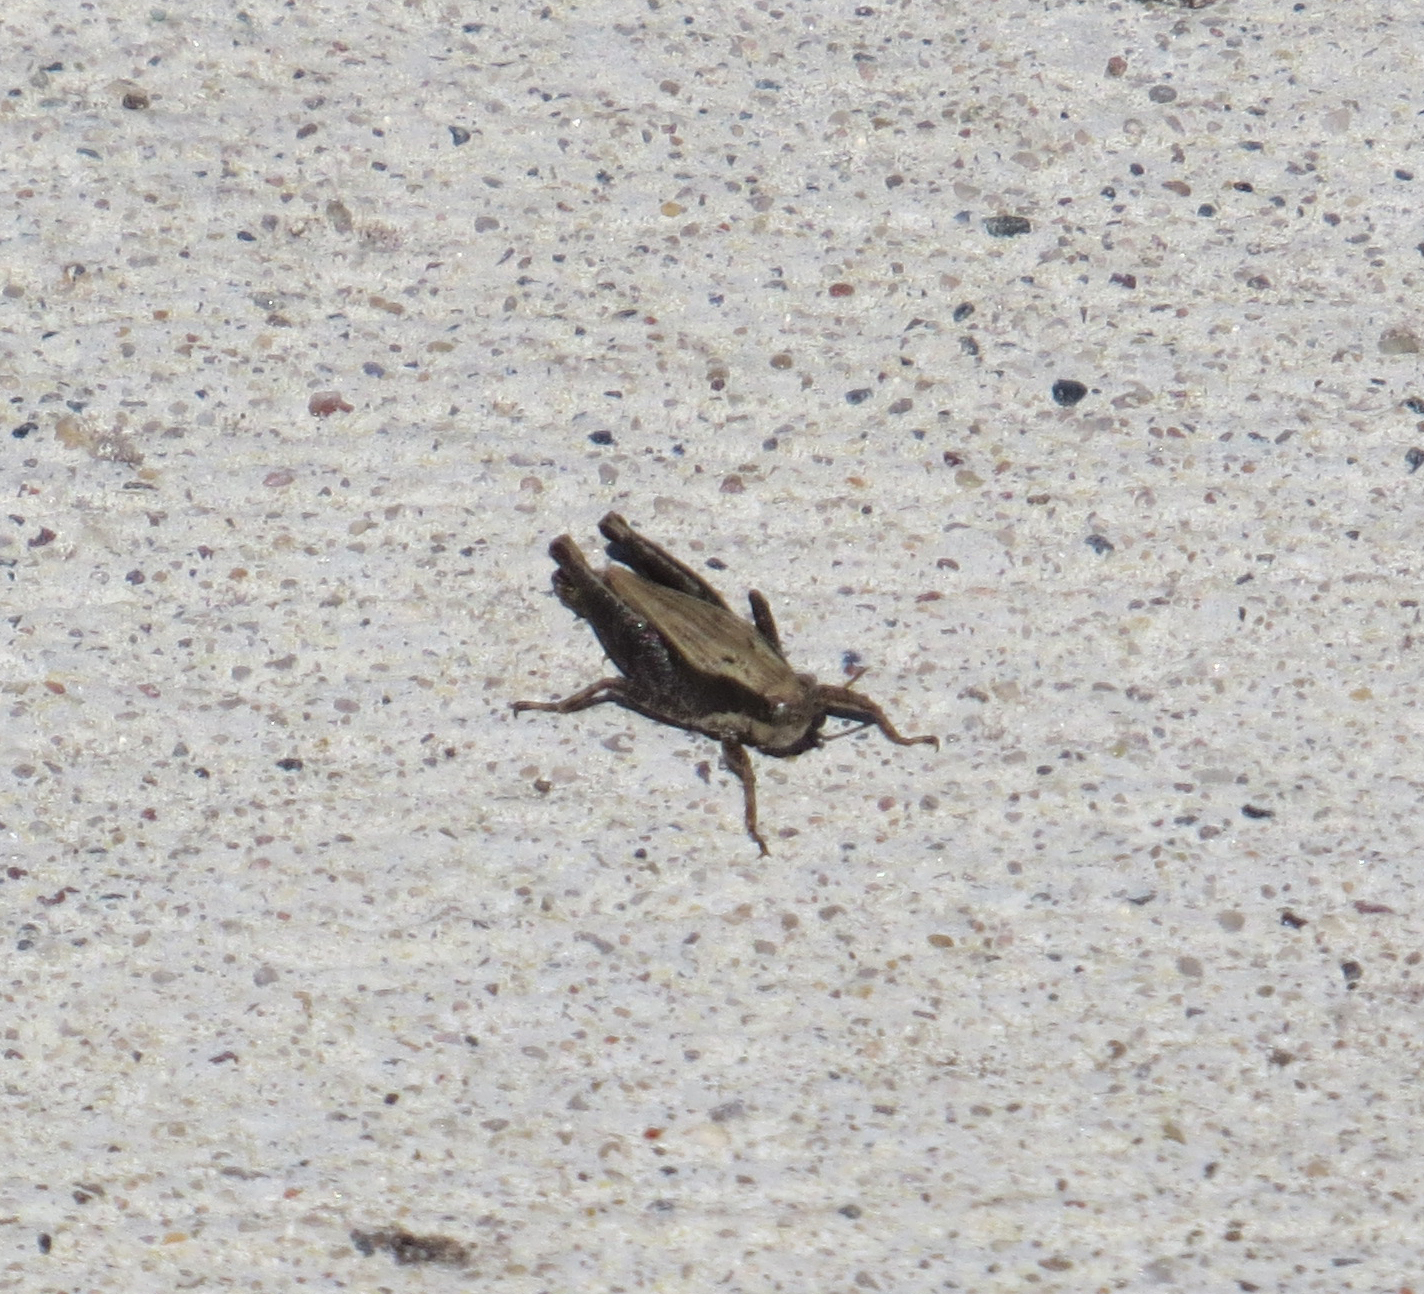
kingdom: Animalia
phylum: Arthropoda
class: Insecta
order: Orthoptera
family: Tetrigidae
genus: Tettigidea
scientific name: Tettigidea laterale
